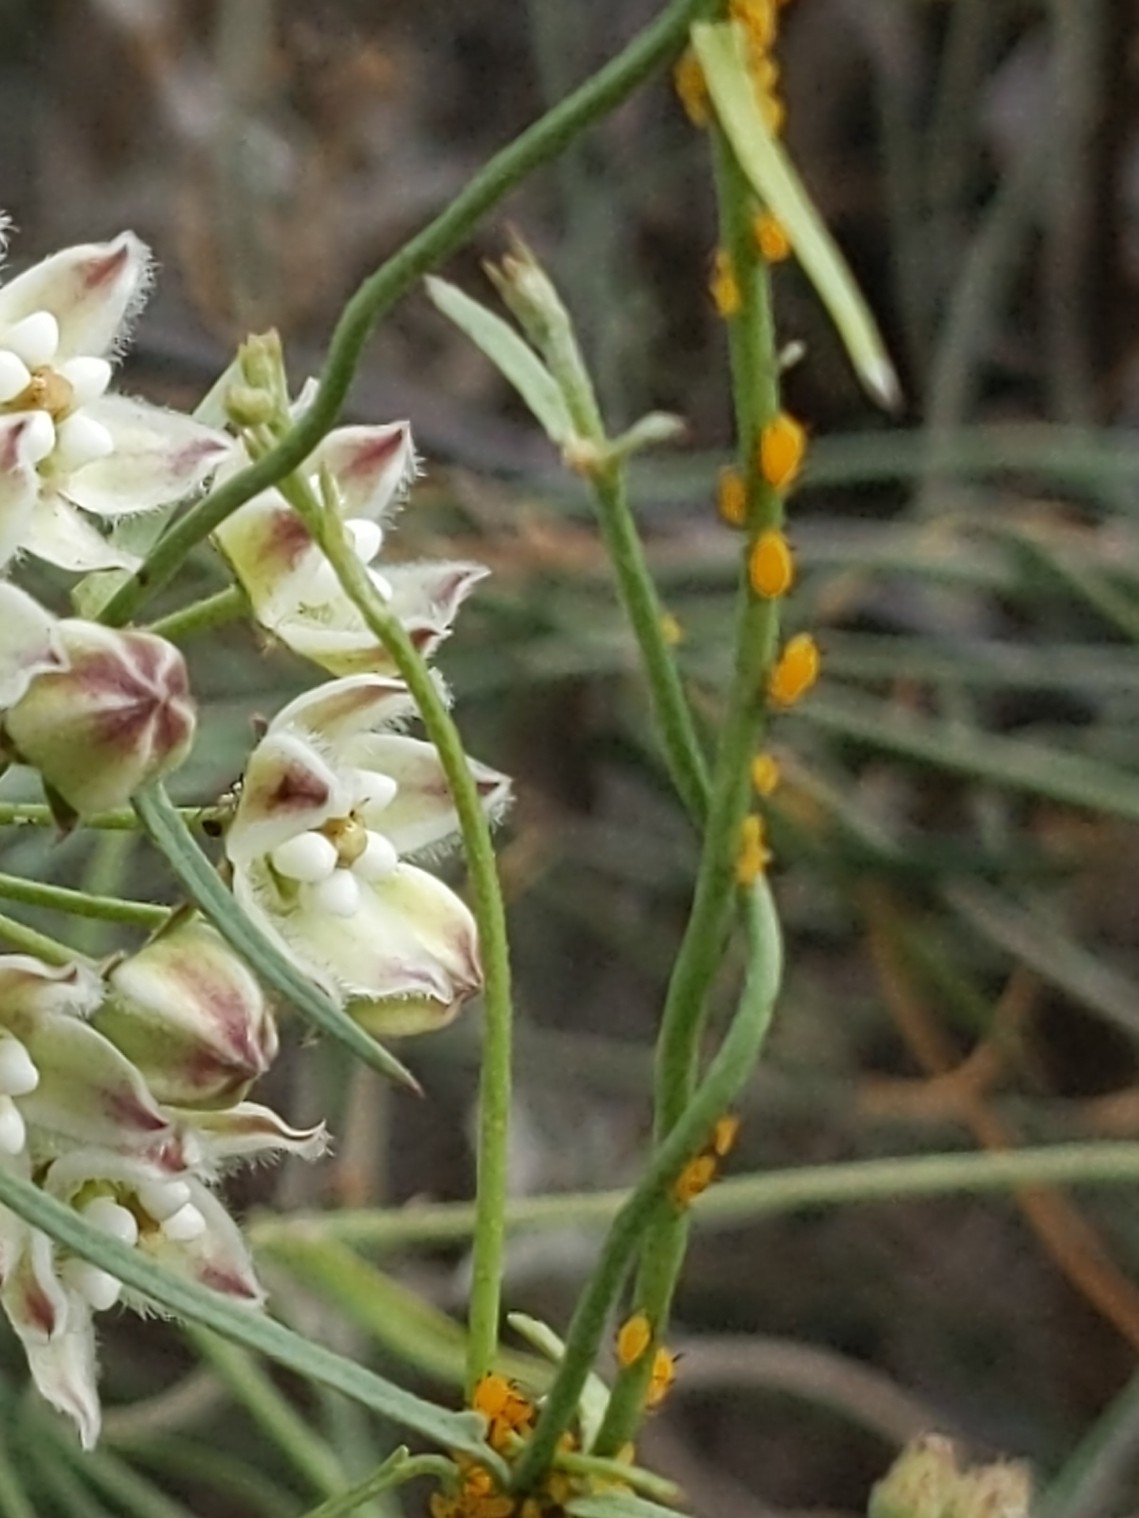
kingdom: Animalia
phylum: Arthropoda
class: Insecta
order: Hemiptera
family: Aphididae
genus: Aphis
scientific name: Aphis nerii
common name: Oleander aphid
